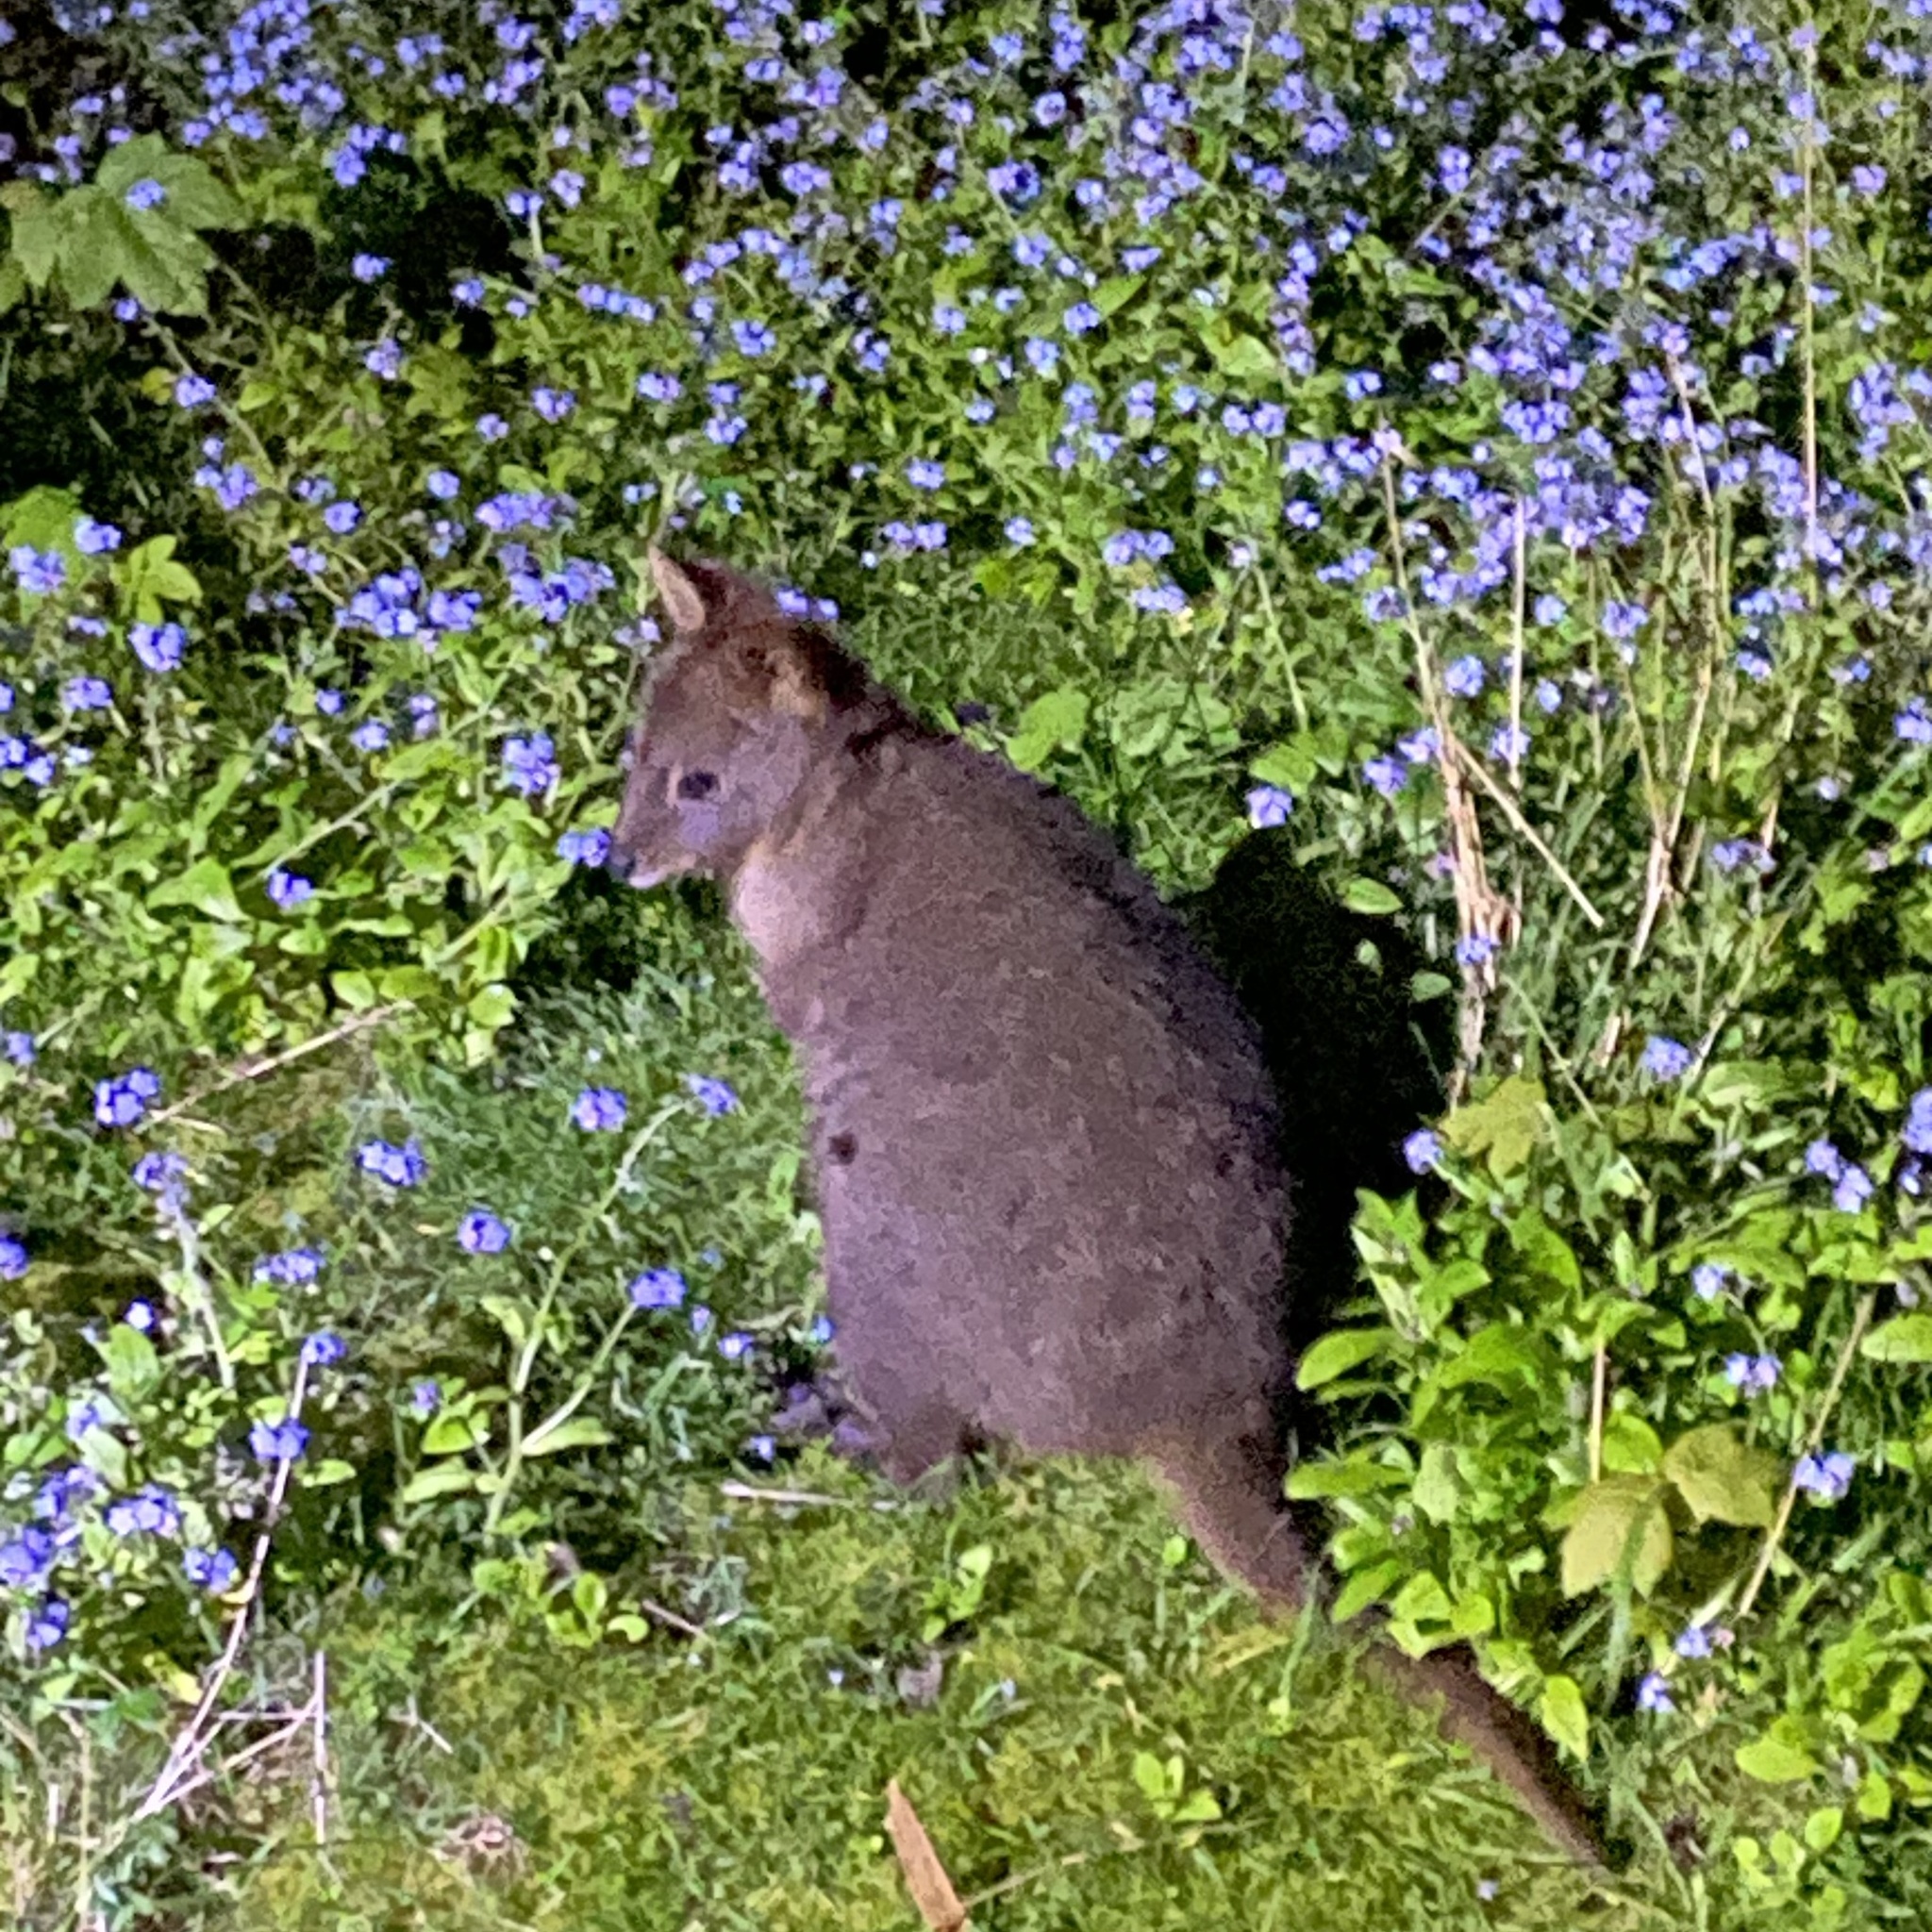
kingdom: Animalia
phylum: Chordata
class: Mammalia
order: Diprotodontia
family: Macropodidae
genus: Thylogale
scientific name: Thylogale billardierii
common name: Tasmanian pademelon
